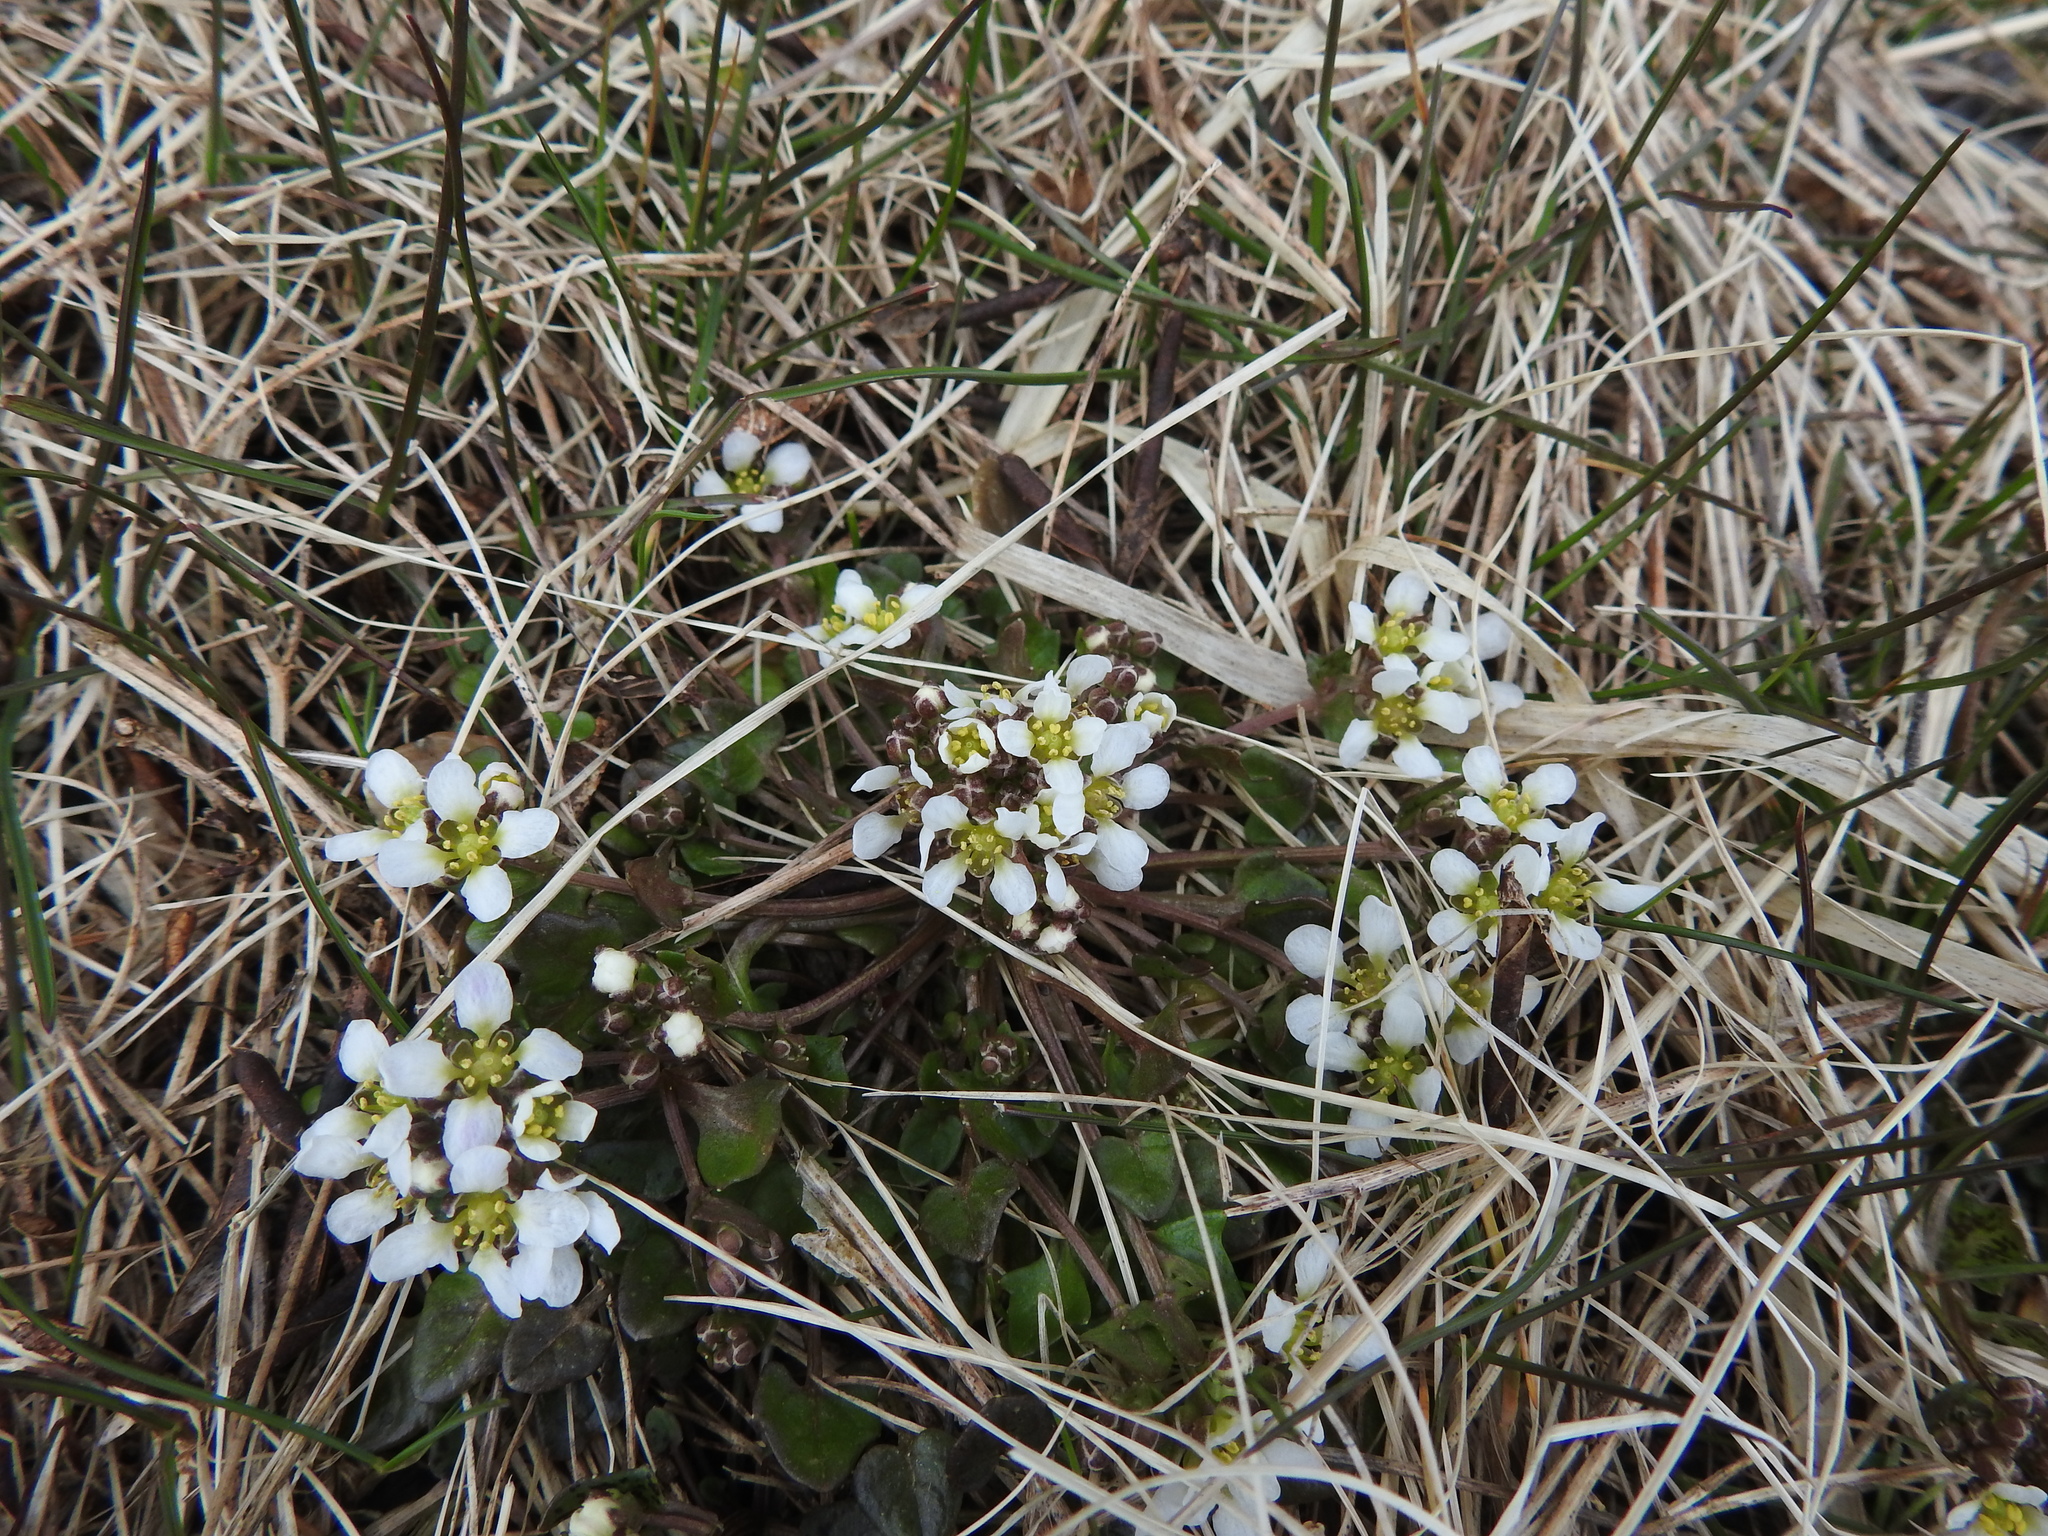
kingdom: Plantae
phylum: Tracheophyta
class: Magnoliopsida
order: Brassicales
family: Brassicaceae
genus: Cochlearia
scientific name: Cochlearia officinalis
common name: Scurvy-grass
